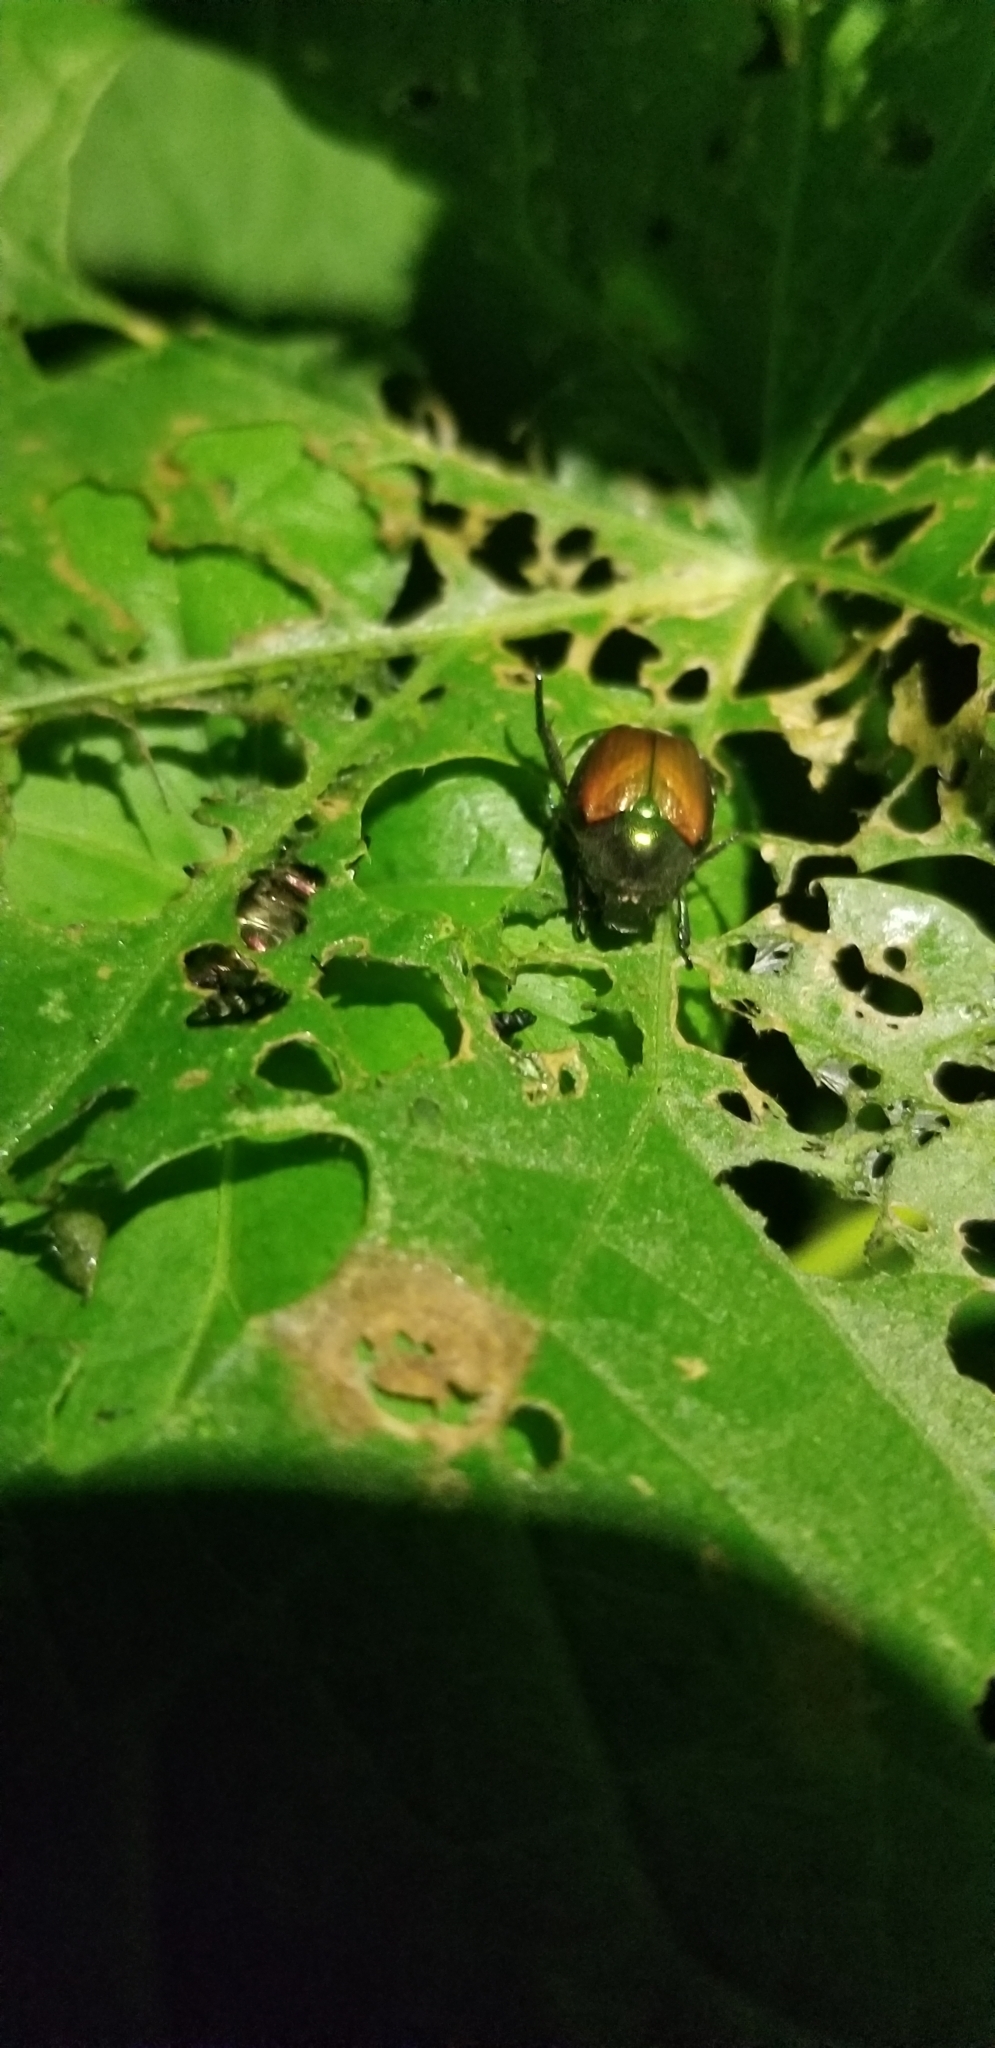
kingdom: Animalia
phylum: Arthropoda
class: Insecta
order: Coleoptera
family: Scarabaeidae
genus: Popillia
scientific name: Popillia japonica
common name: Japanese beetle
